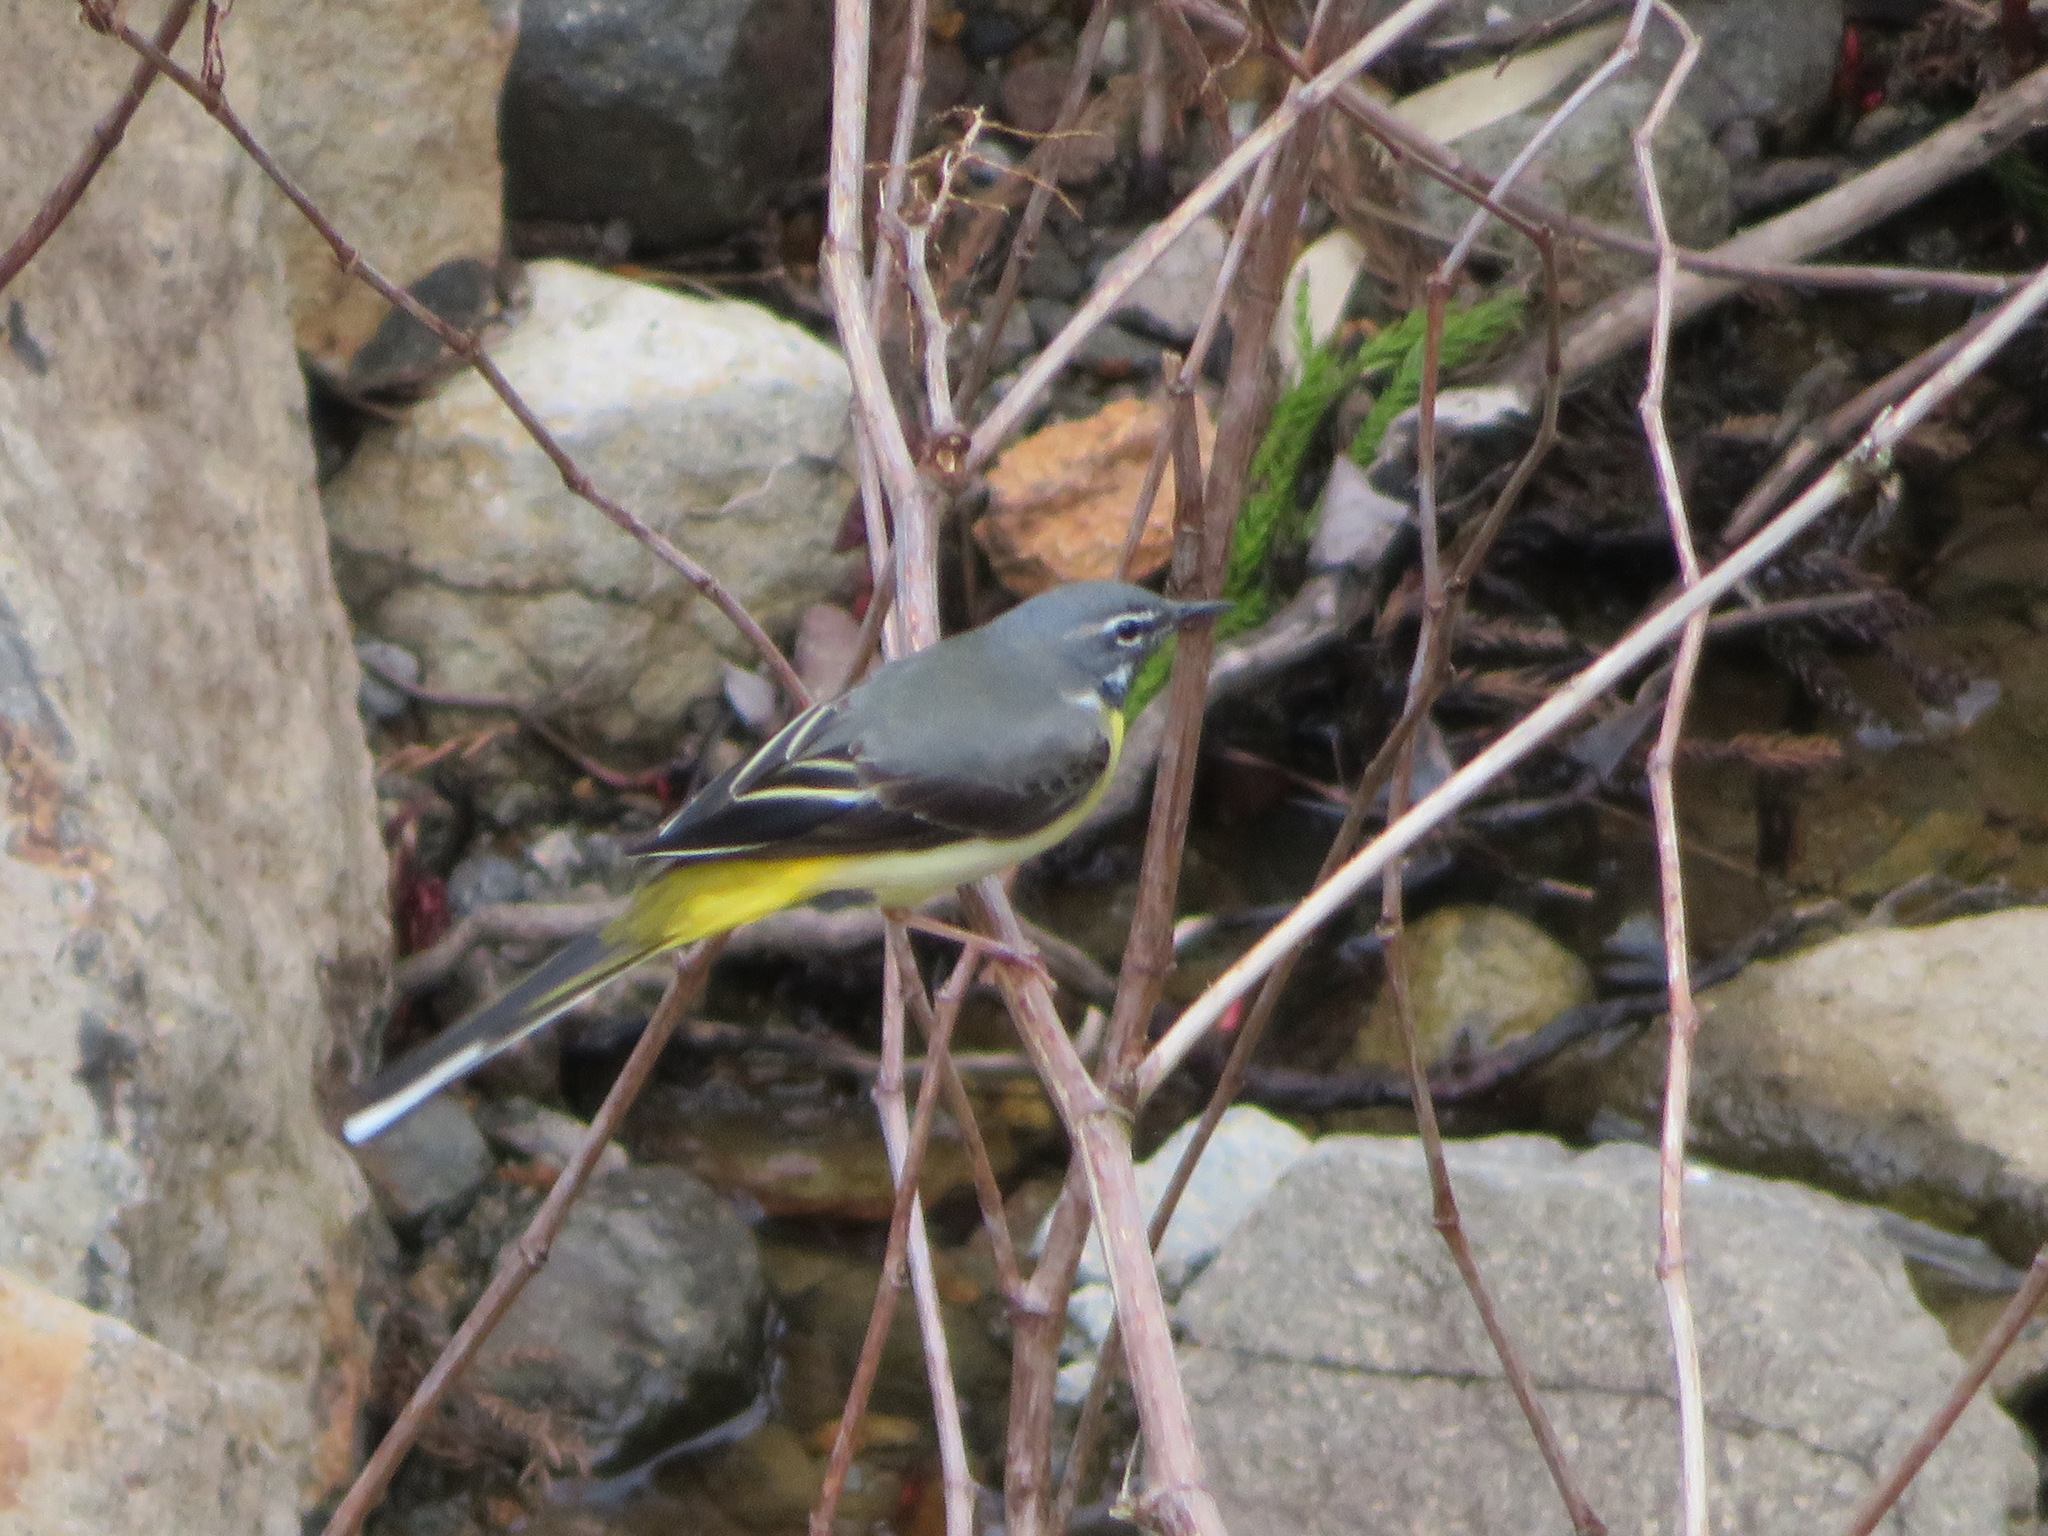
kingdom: Animalia
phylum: Chordata
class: Aves
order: Passeriformes
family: Motacillidae
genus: Motacilla
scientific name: Motacilla cinerea
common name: Grey wagtail
